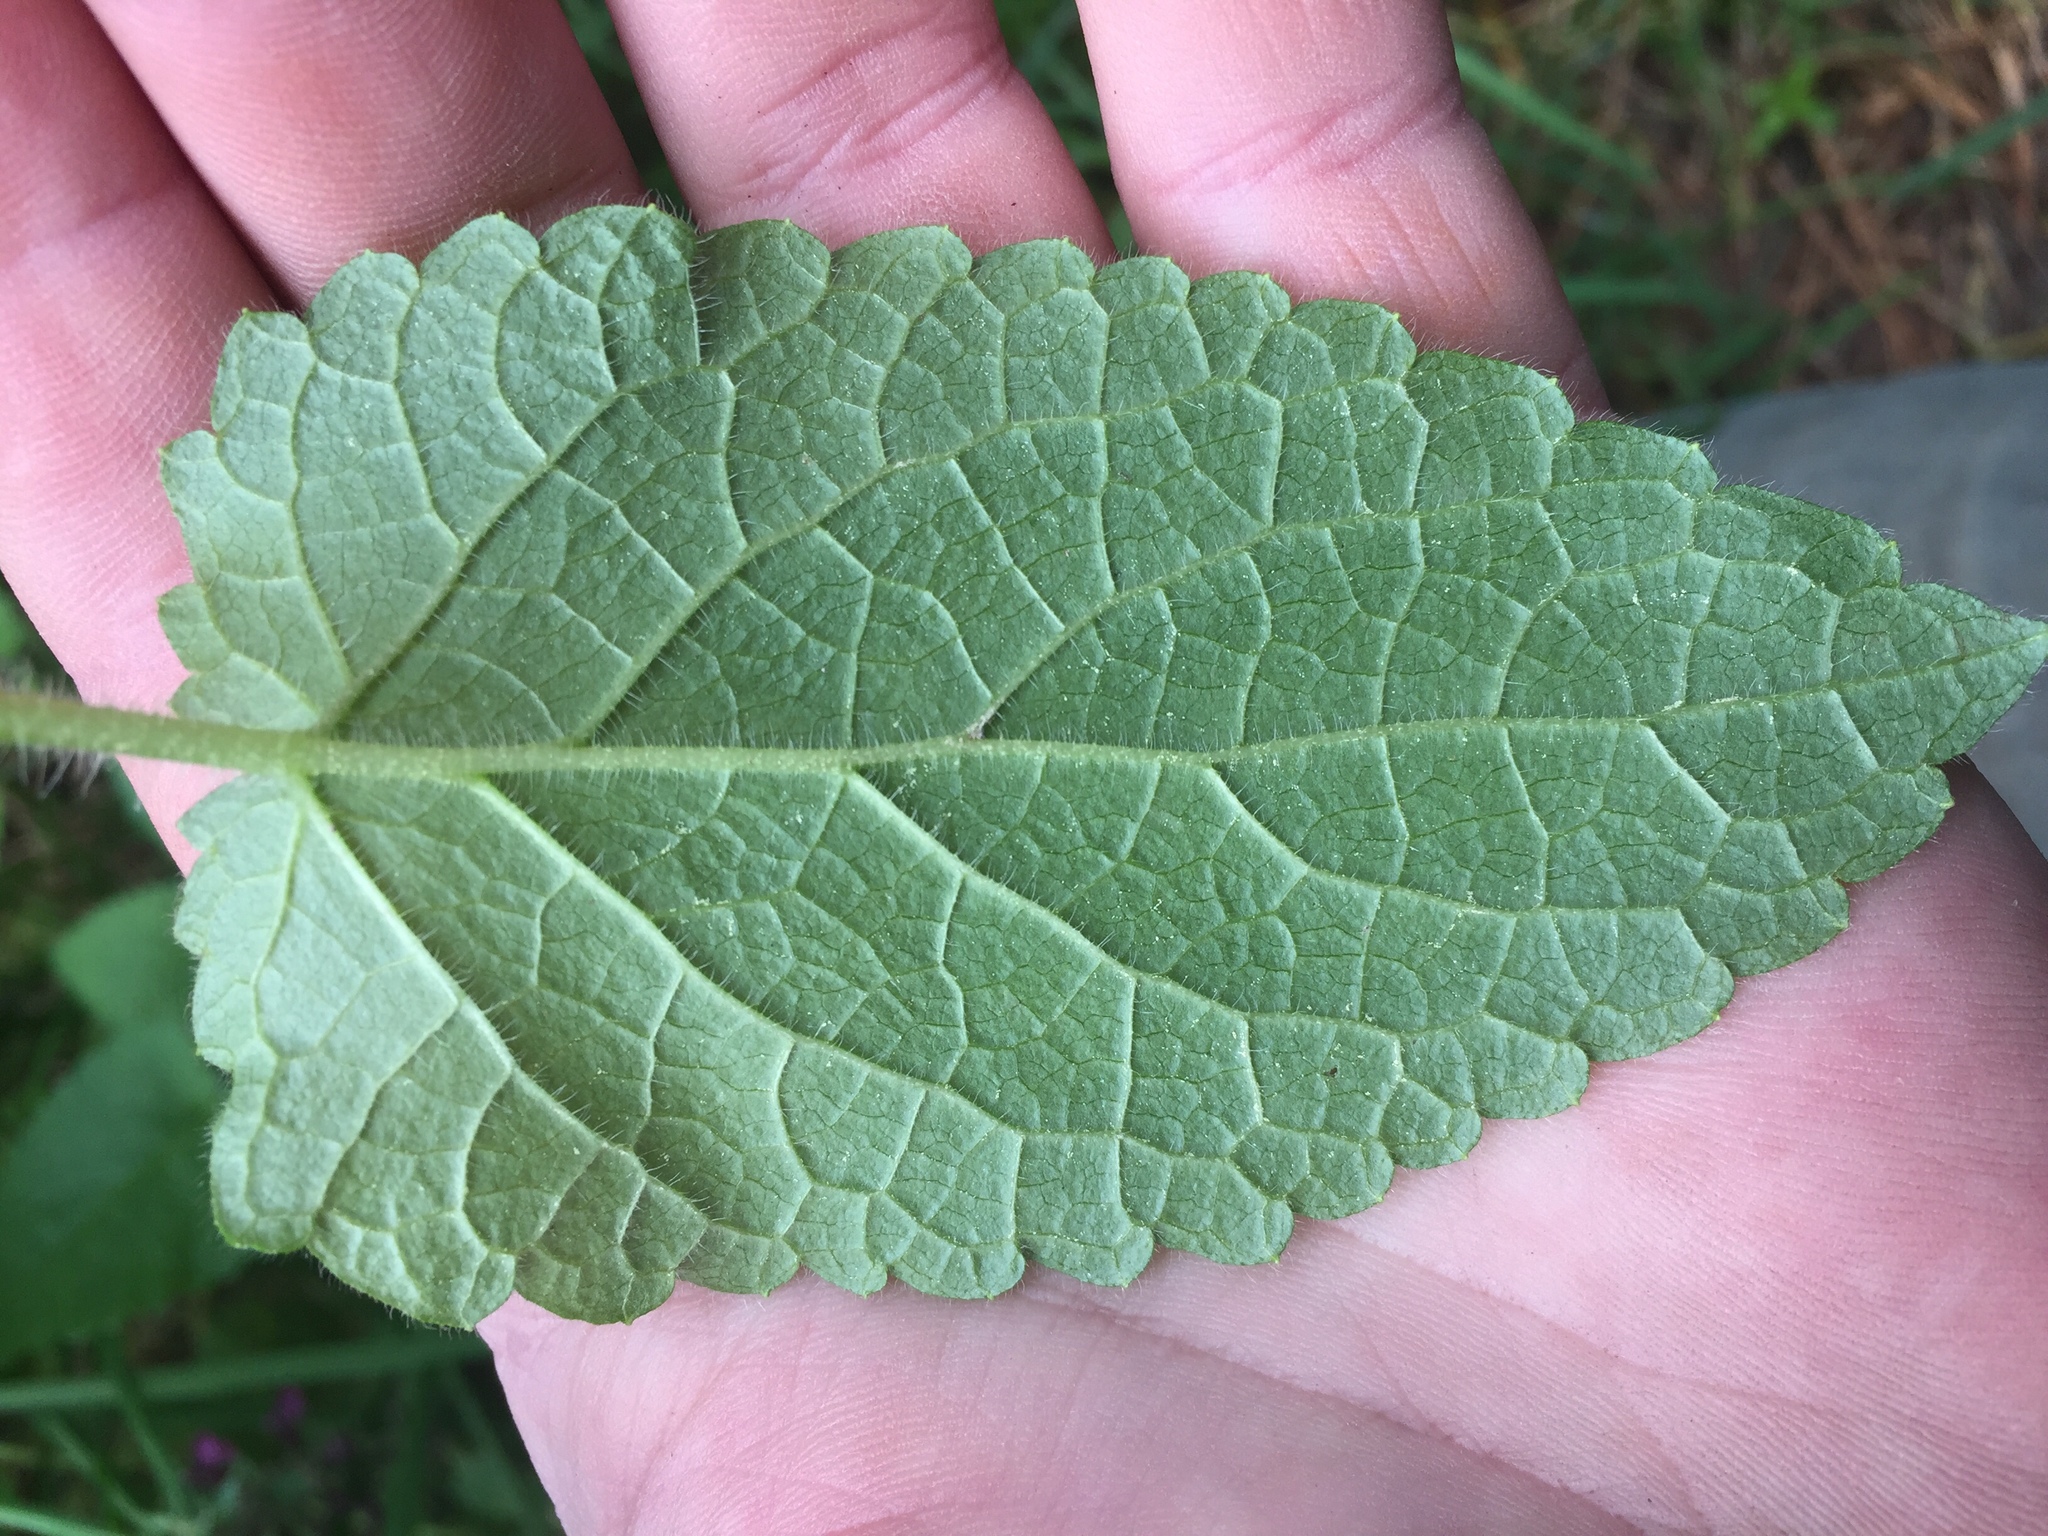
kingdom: Plantae
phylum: Tracheophyta
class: Magnoliopsida
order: Lamiales
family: Lamiaceae
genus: Stachys
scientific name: Stachys sylvatica
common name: Hedge woundwort
